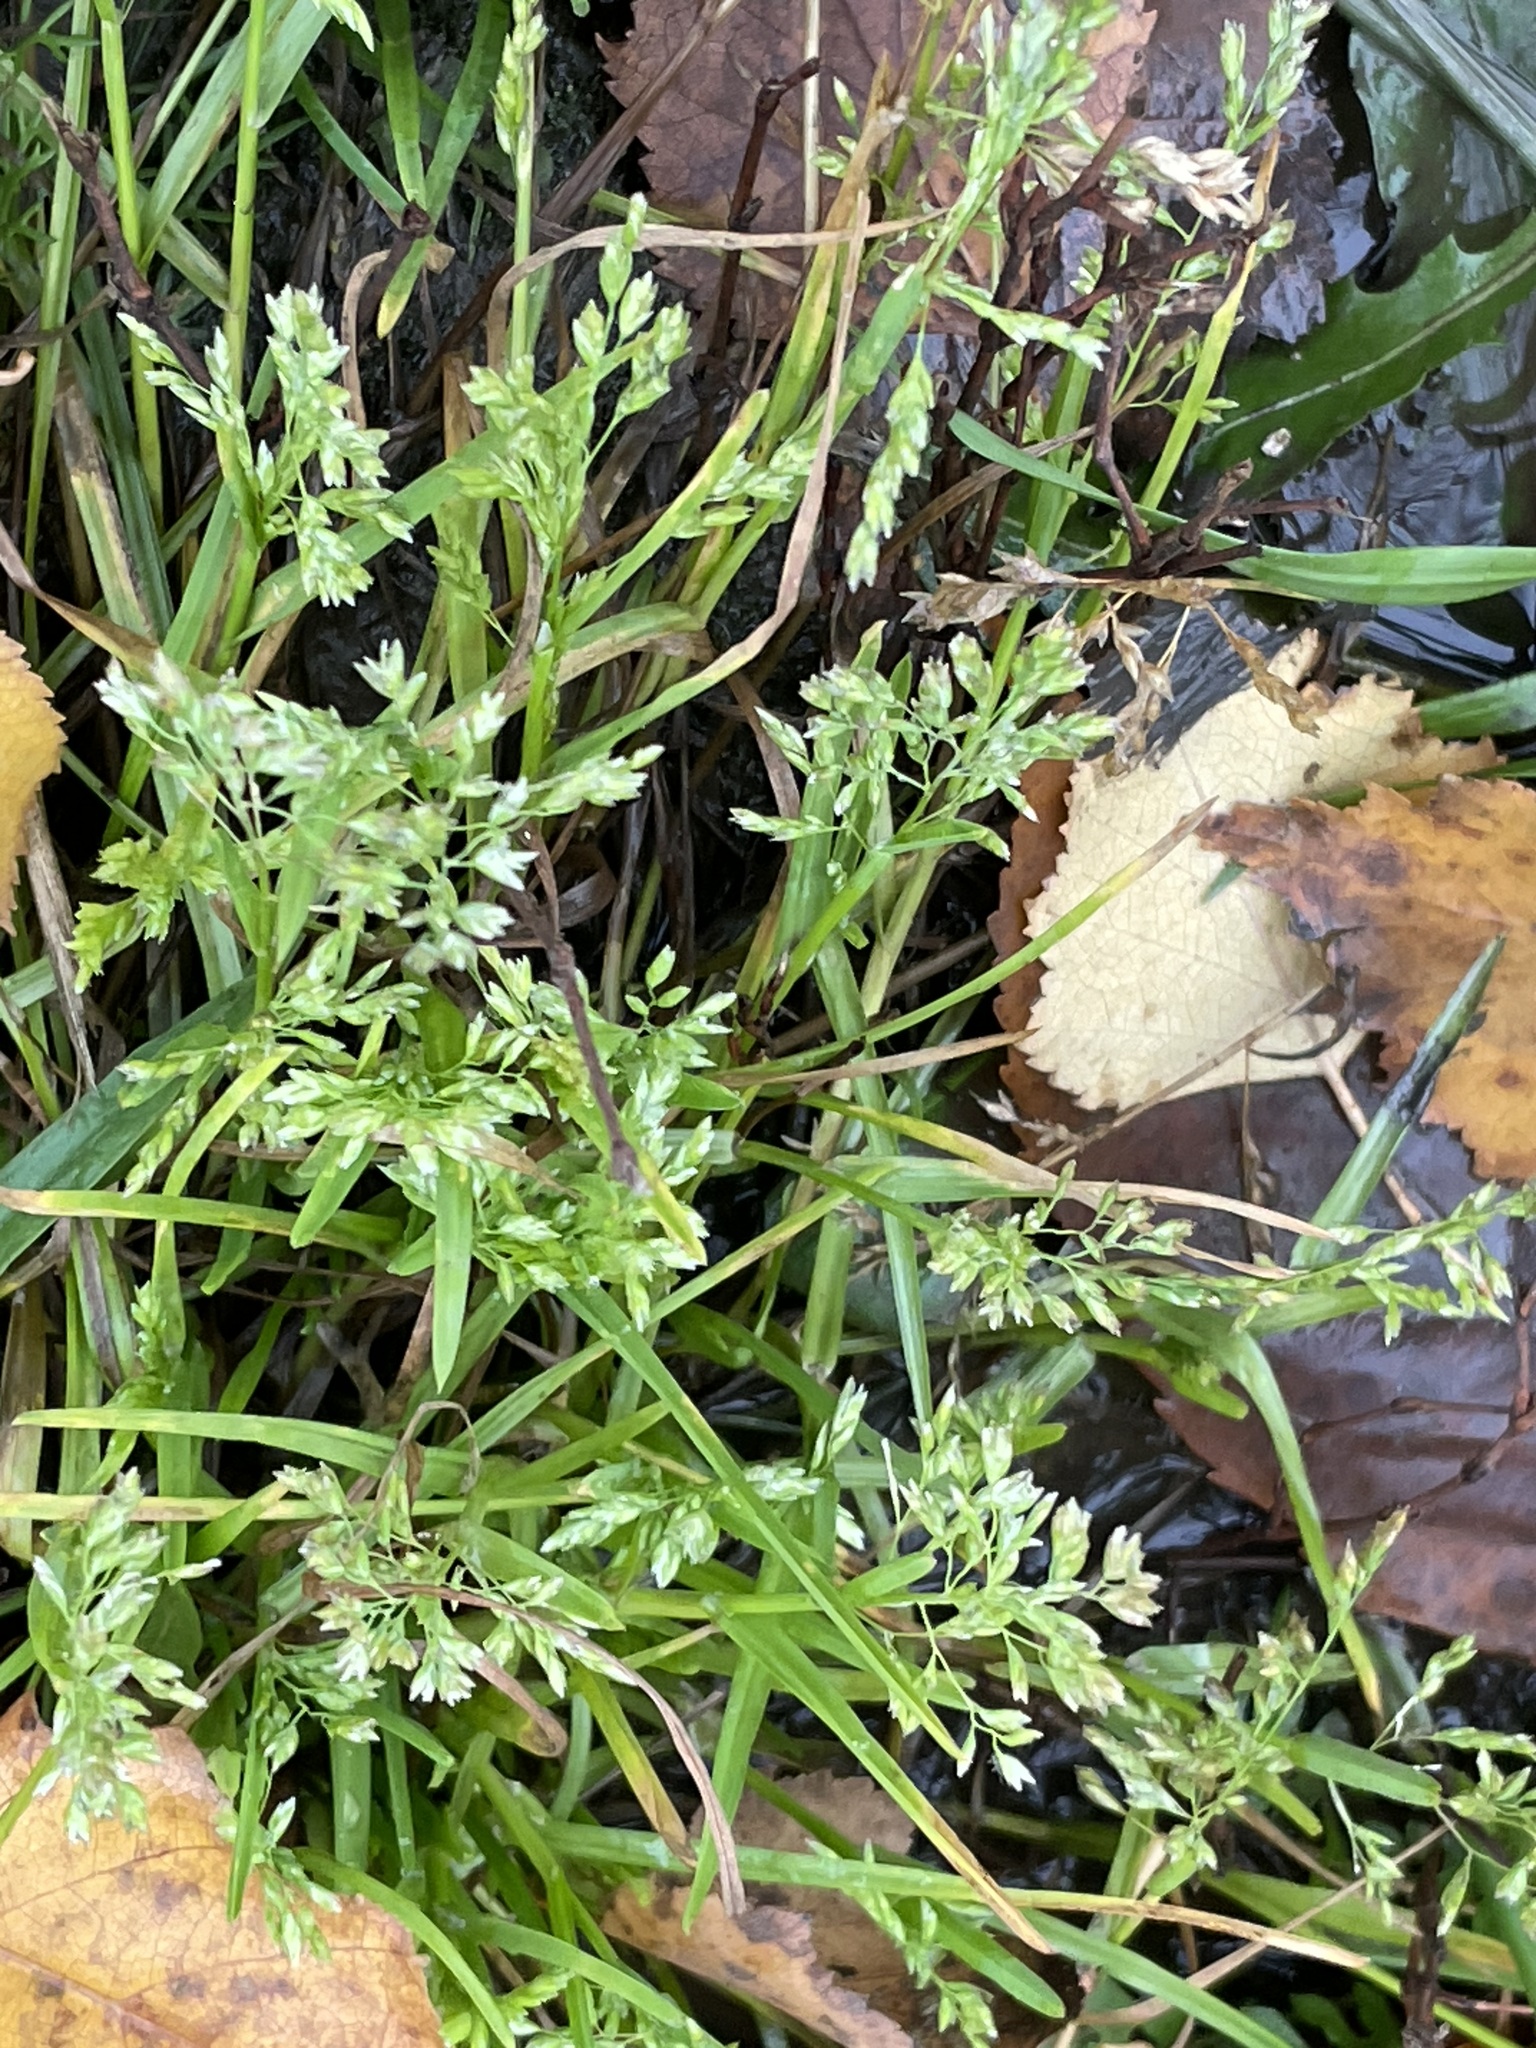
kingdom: Plantae
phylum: Tracheophyta
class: Liliopsida
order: Poales
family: Poaceae
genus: Poa
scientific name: Poa annua
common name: Annual bluegrass
